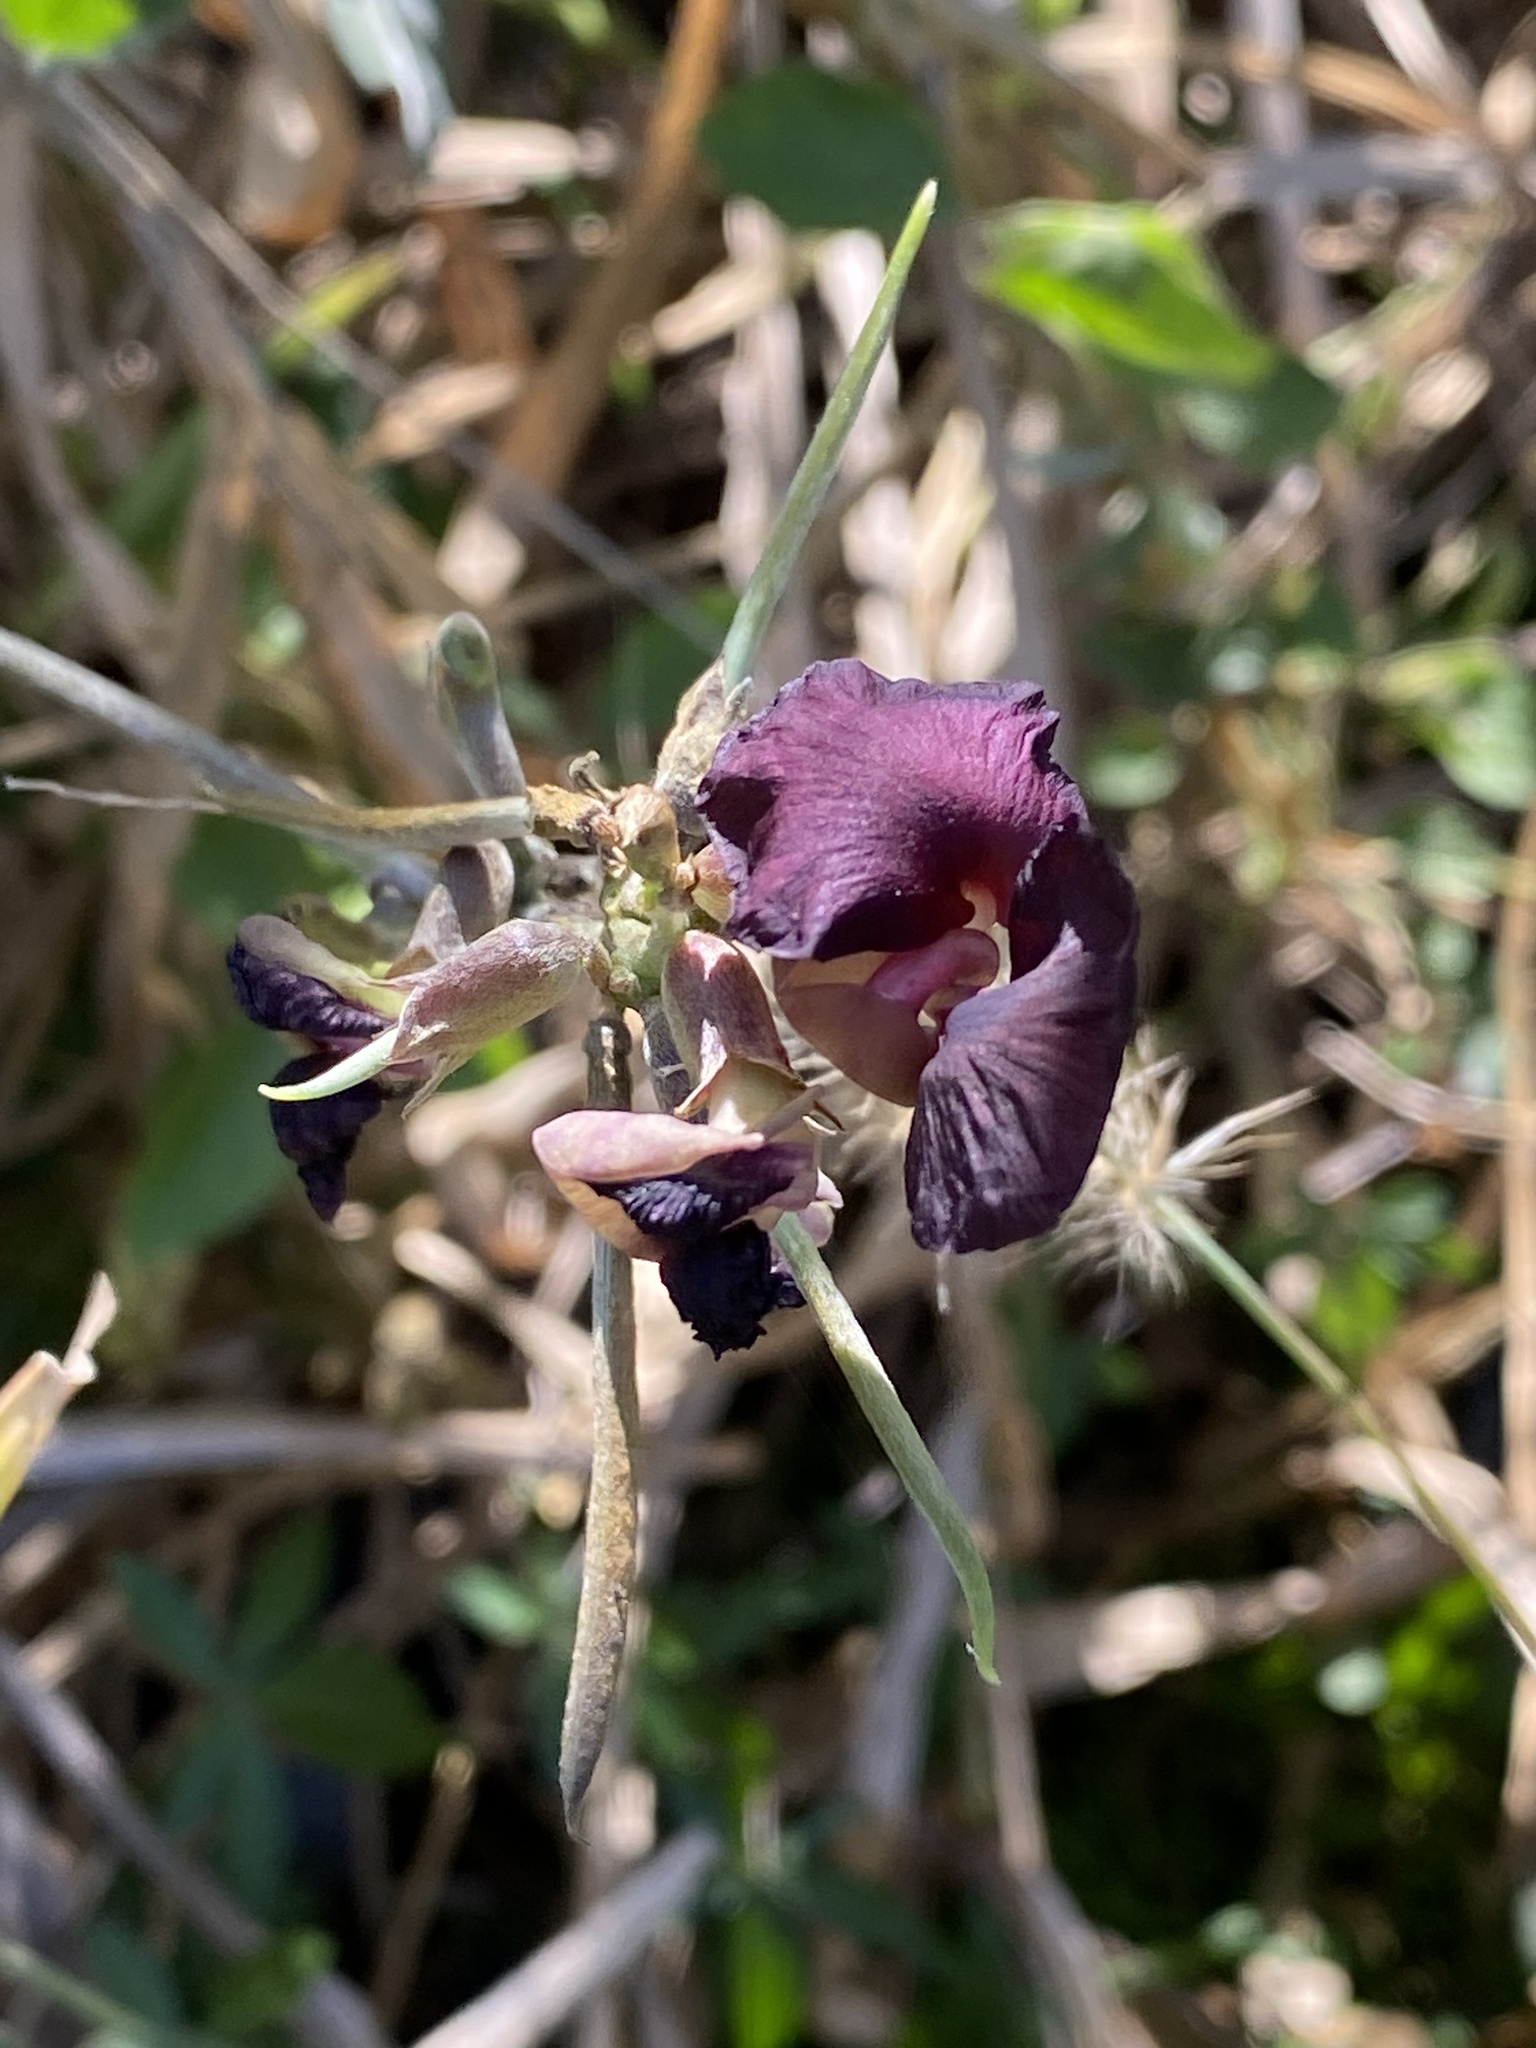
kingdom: Plantae
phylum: Tracheophyta
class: Magnoliopsida
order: Fabales
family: Fabaceae
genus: Macroptilium
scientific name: Macroptilium atropurpureum
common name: Purple bushbean
